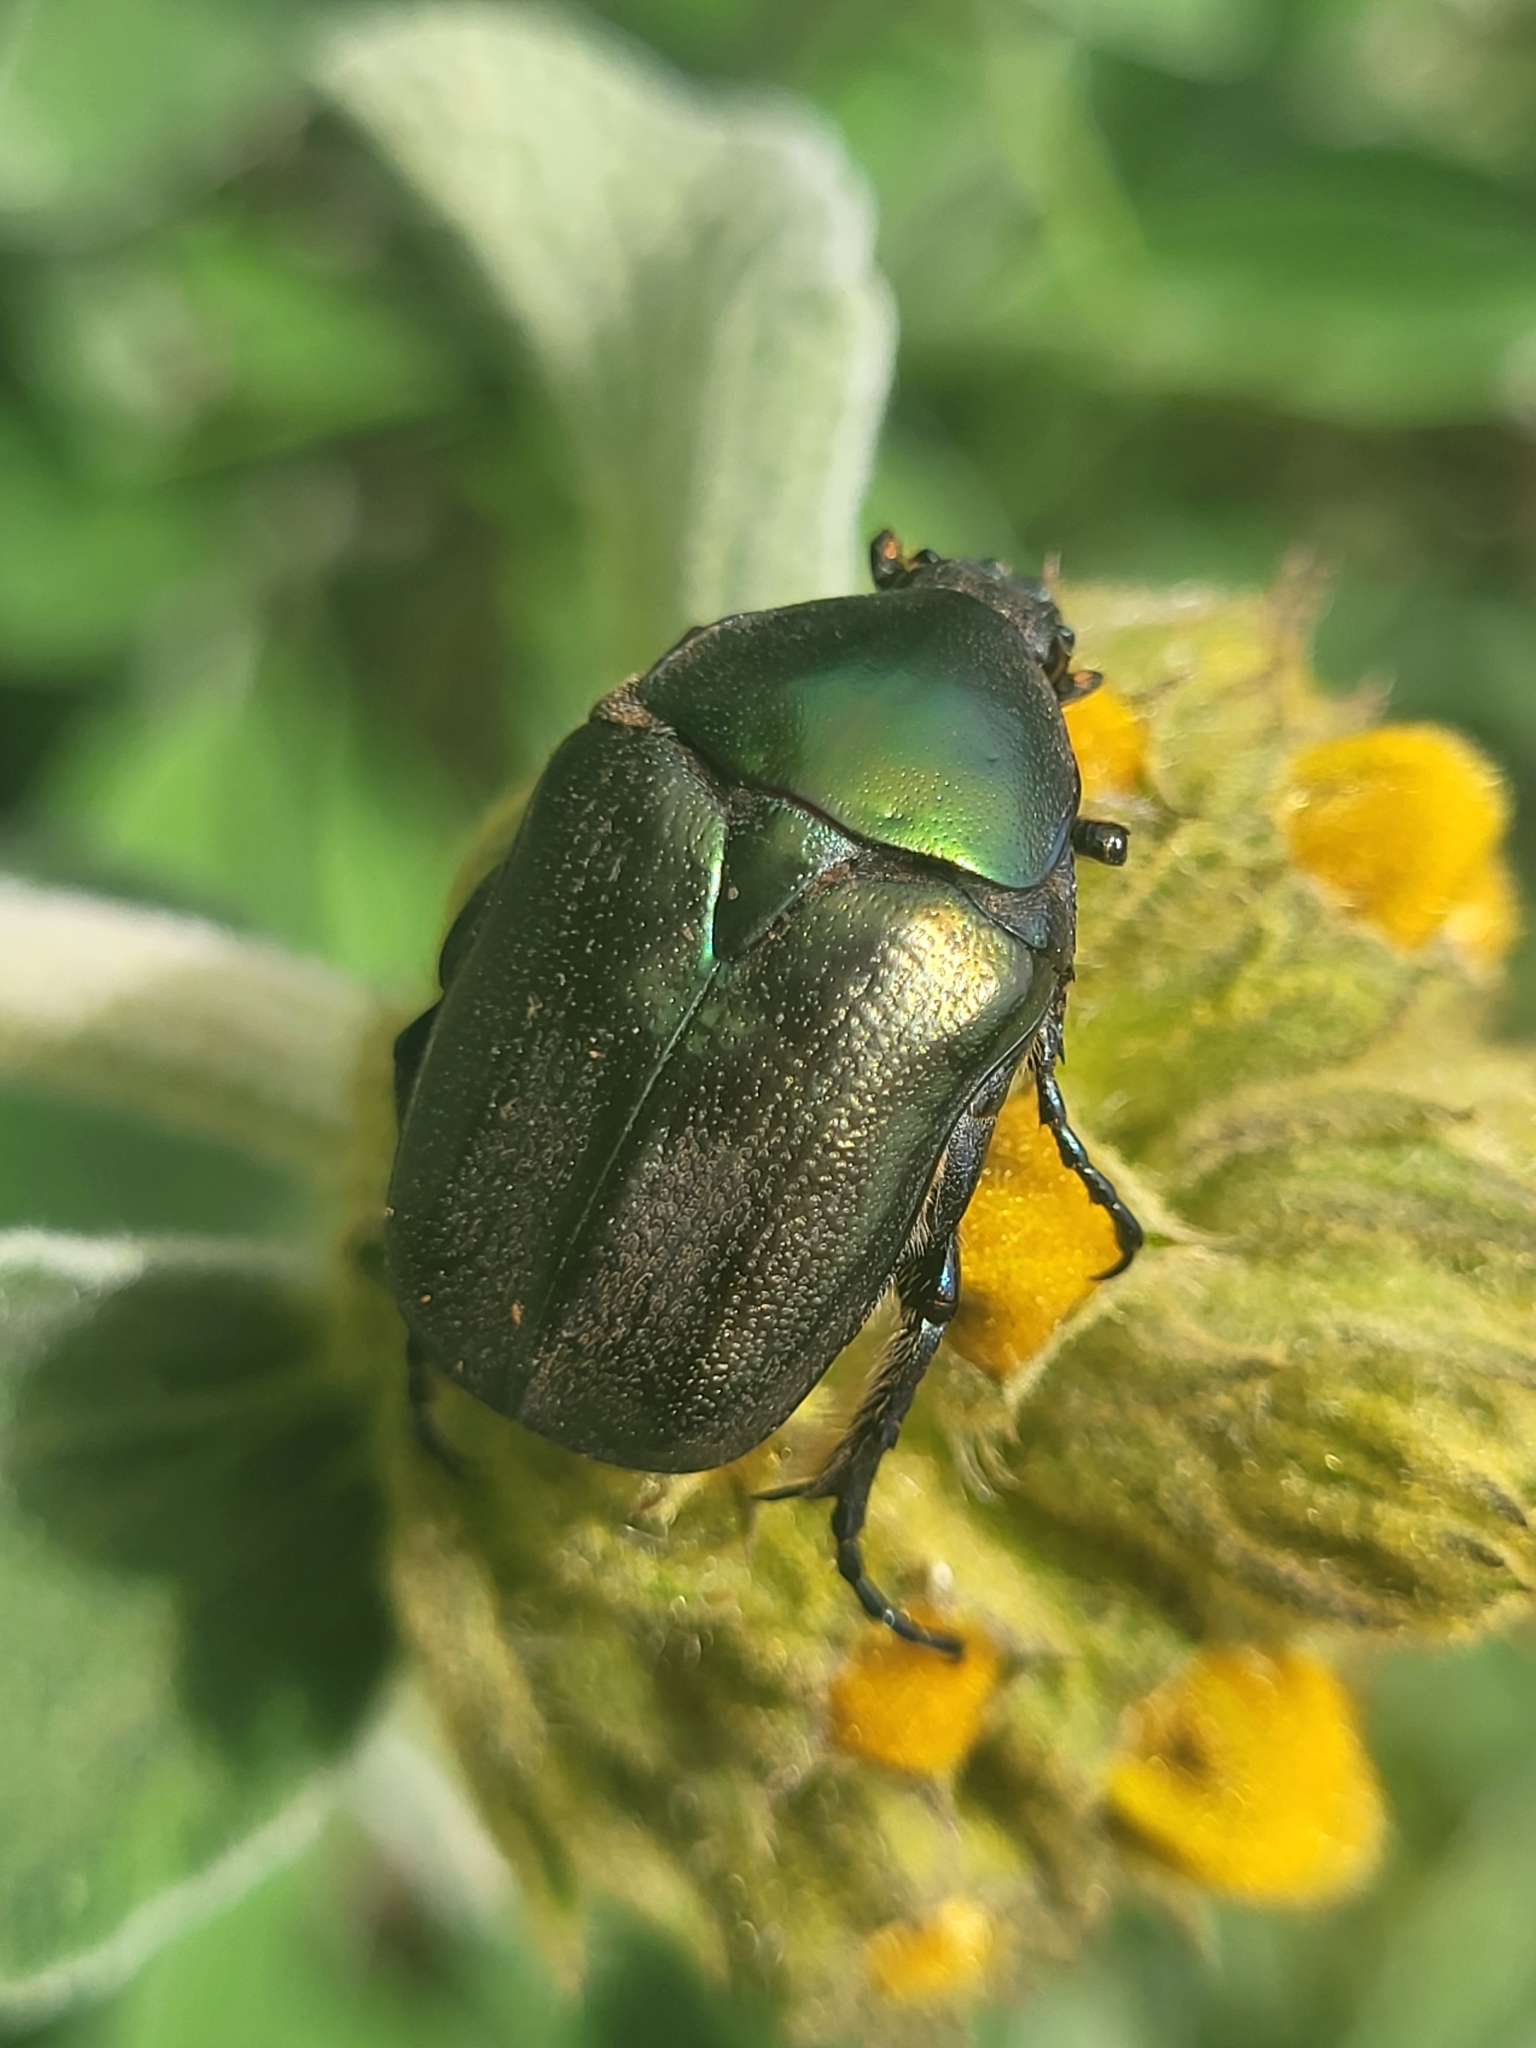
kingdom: Animalia
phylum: Arthropoda
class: Insecta
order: Coleoptera
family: Scarabaeidae
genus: Protaetia
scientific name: Protaetia angustata
